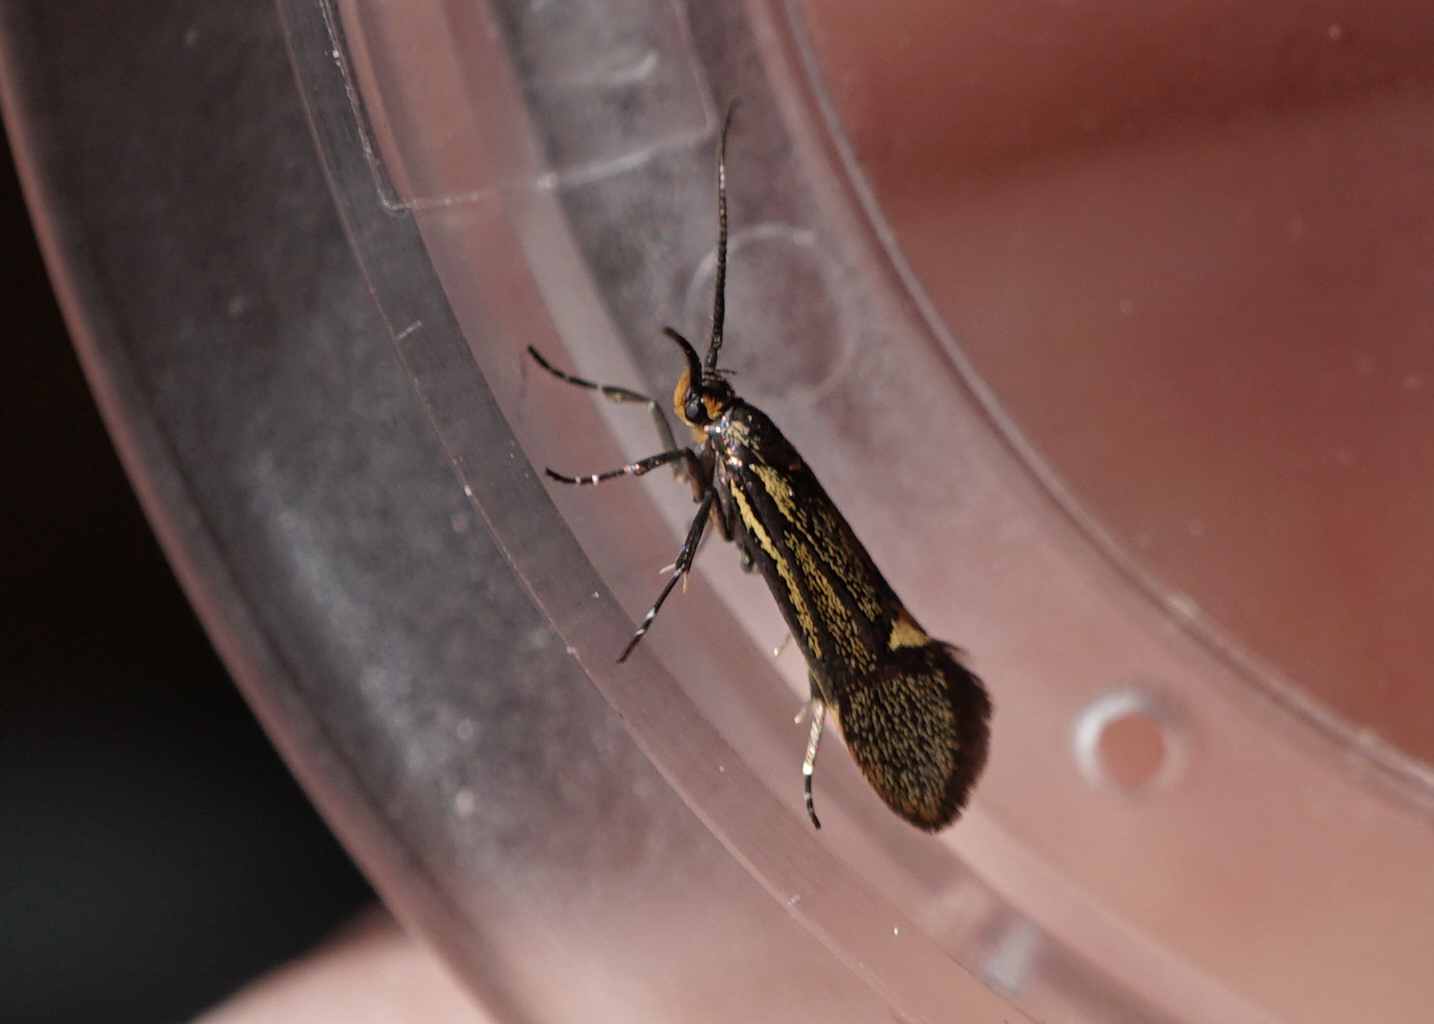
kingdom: Animalia
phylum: Arthropoda
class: Insecta
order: Lepidoptera
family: Oecophoridae
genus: Dafa
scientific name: Dafa Esperia sulphurella
